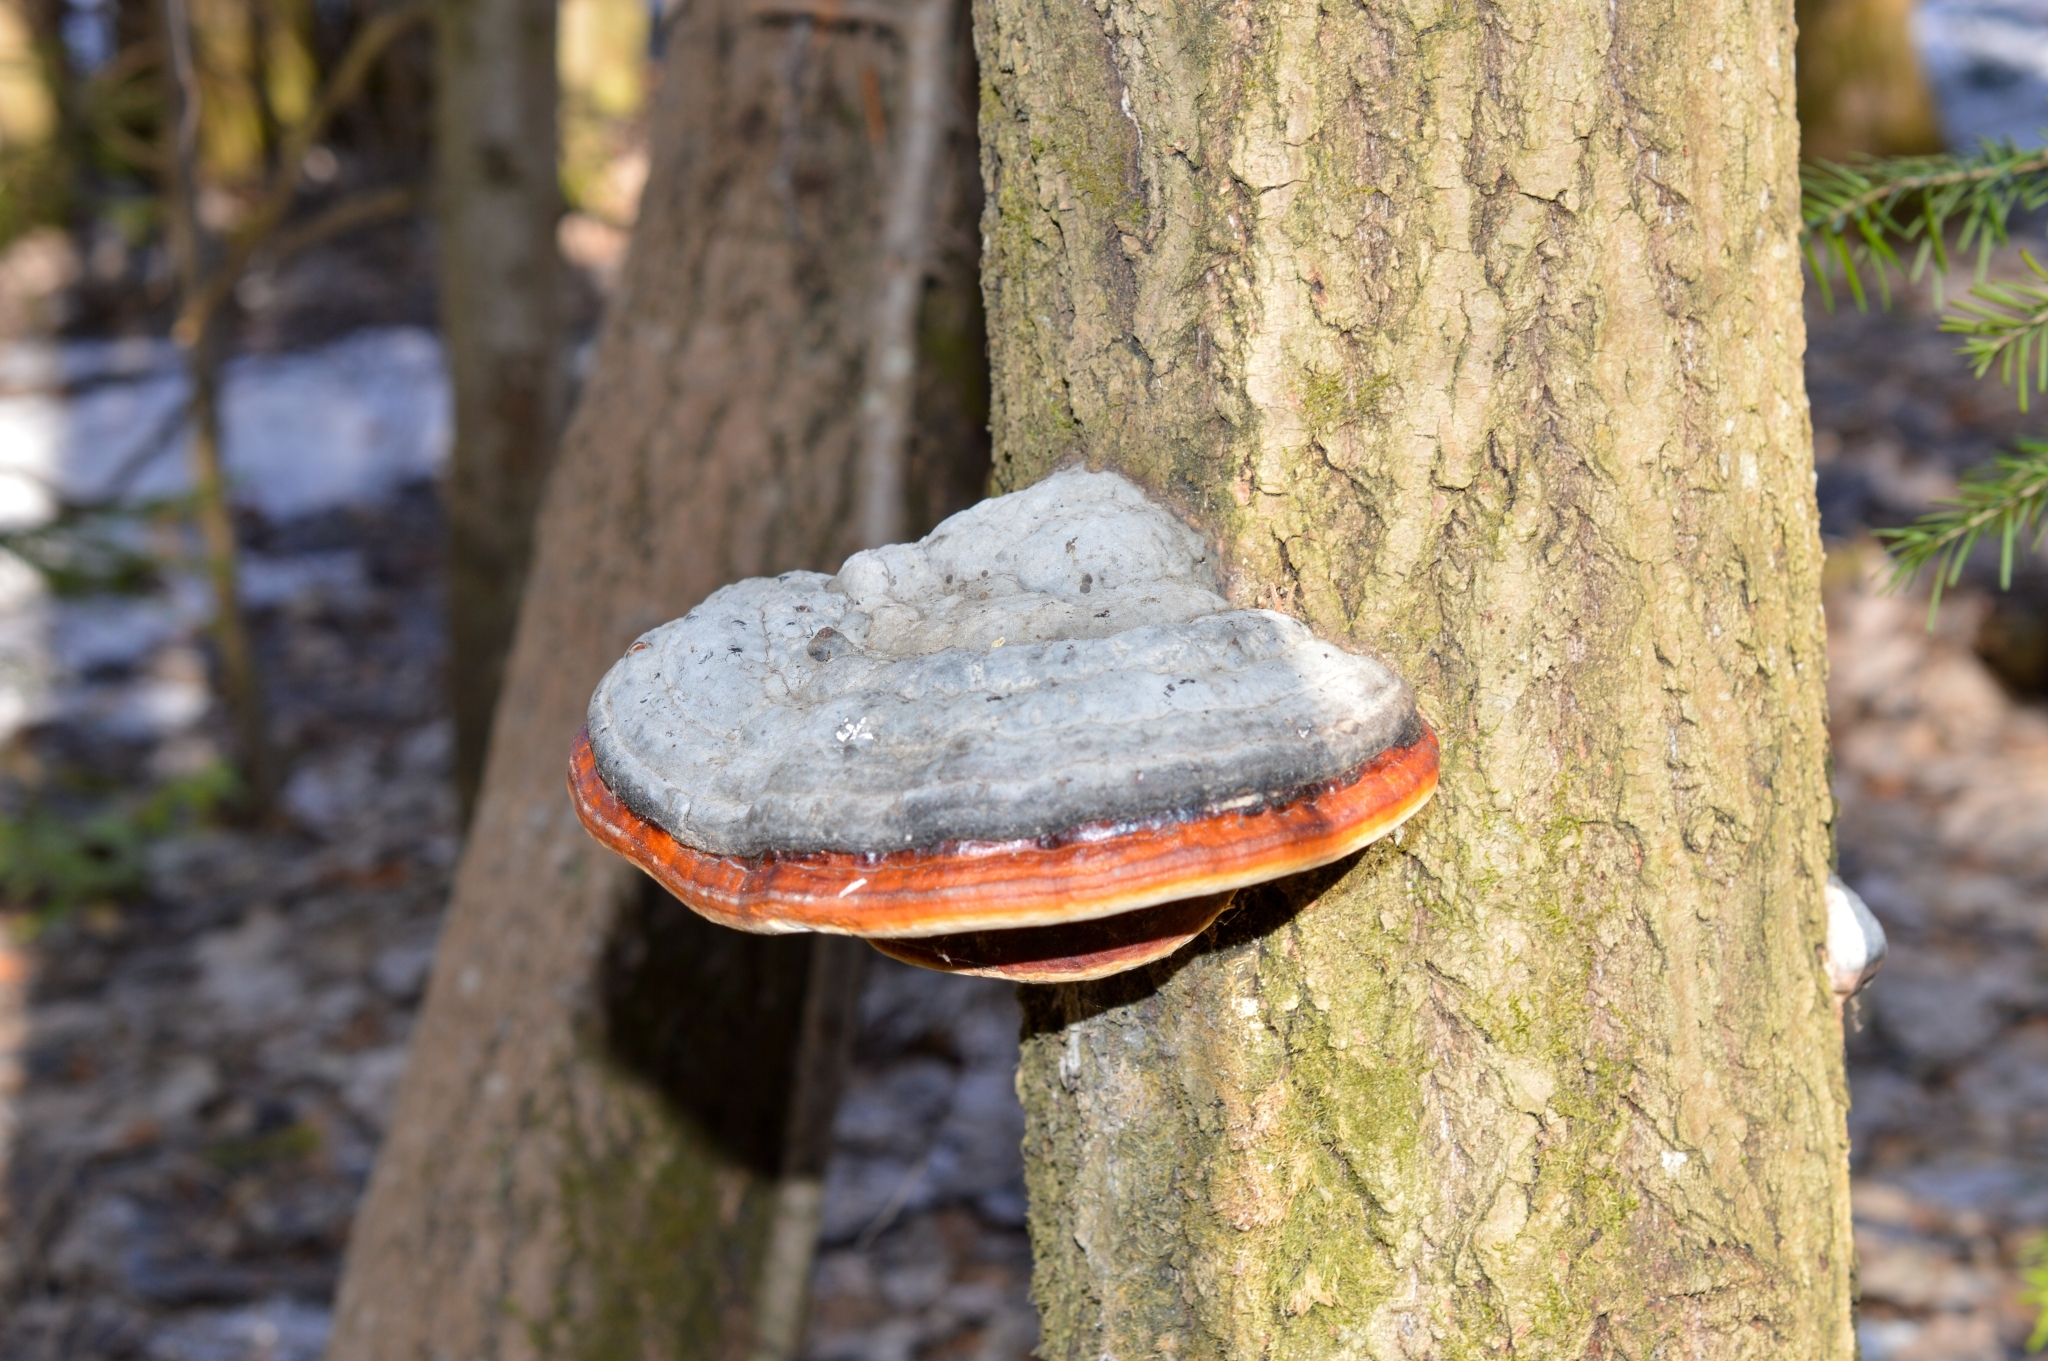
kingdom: Fungi
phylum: Basidiomycota
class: Agaricomycetes
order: Polyporales
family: Fomitopsidaceae
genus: Fomitopsis
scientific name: Fomitopsis pinicola
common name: Red-belted bracket
